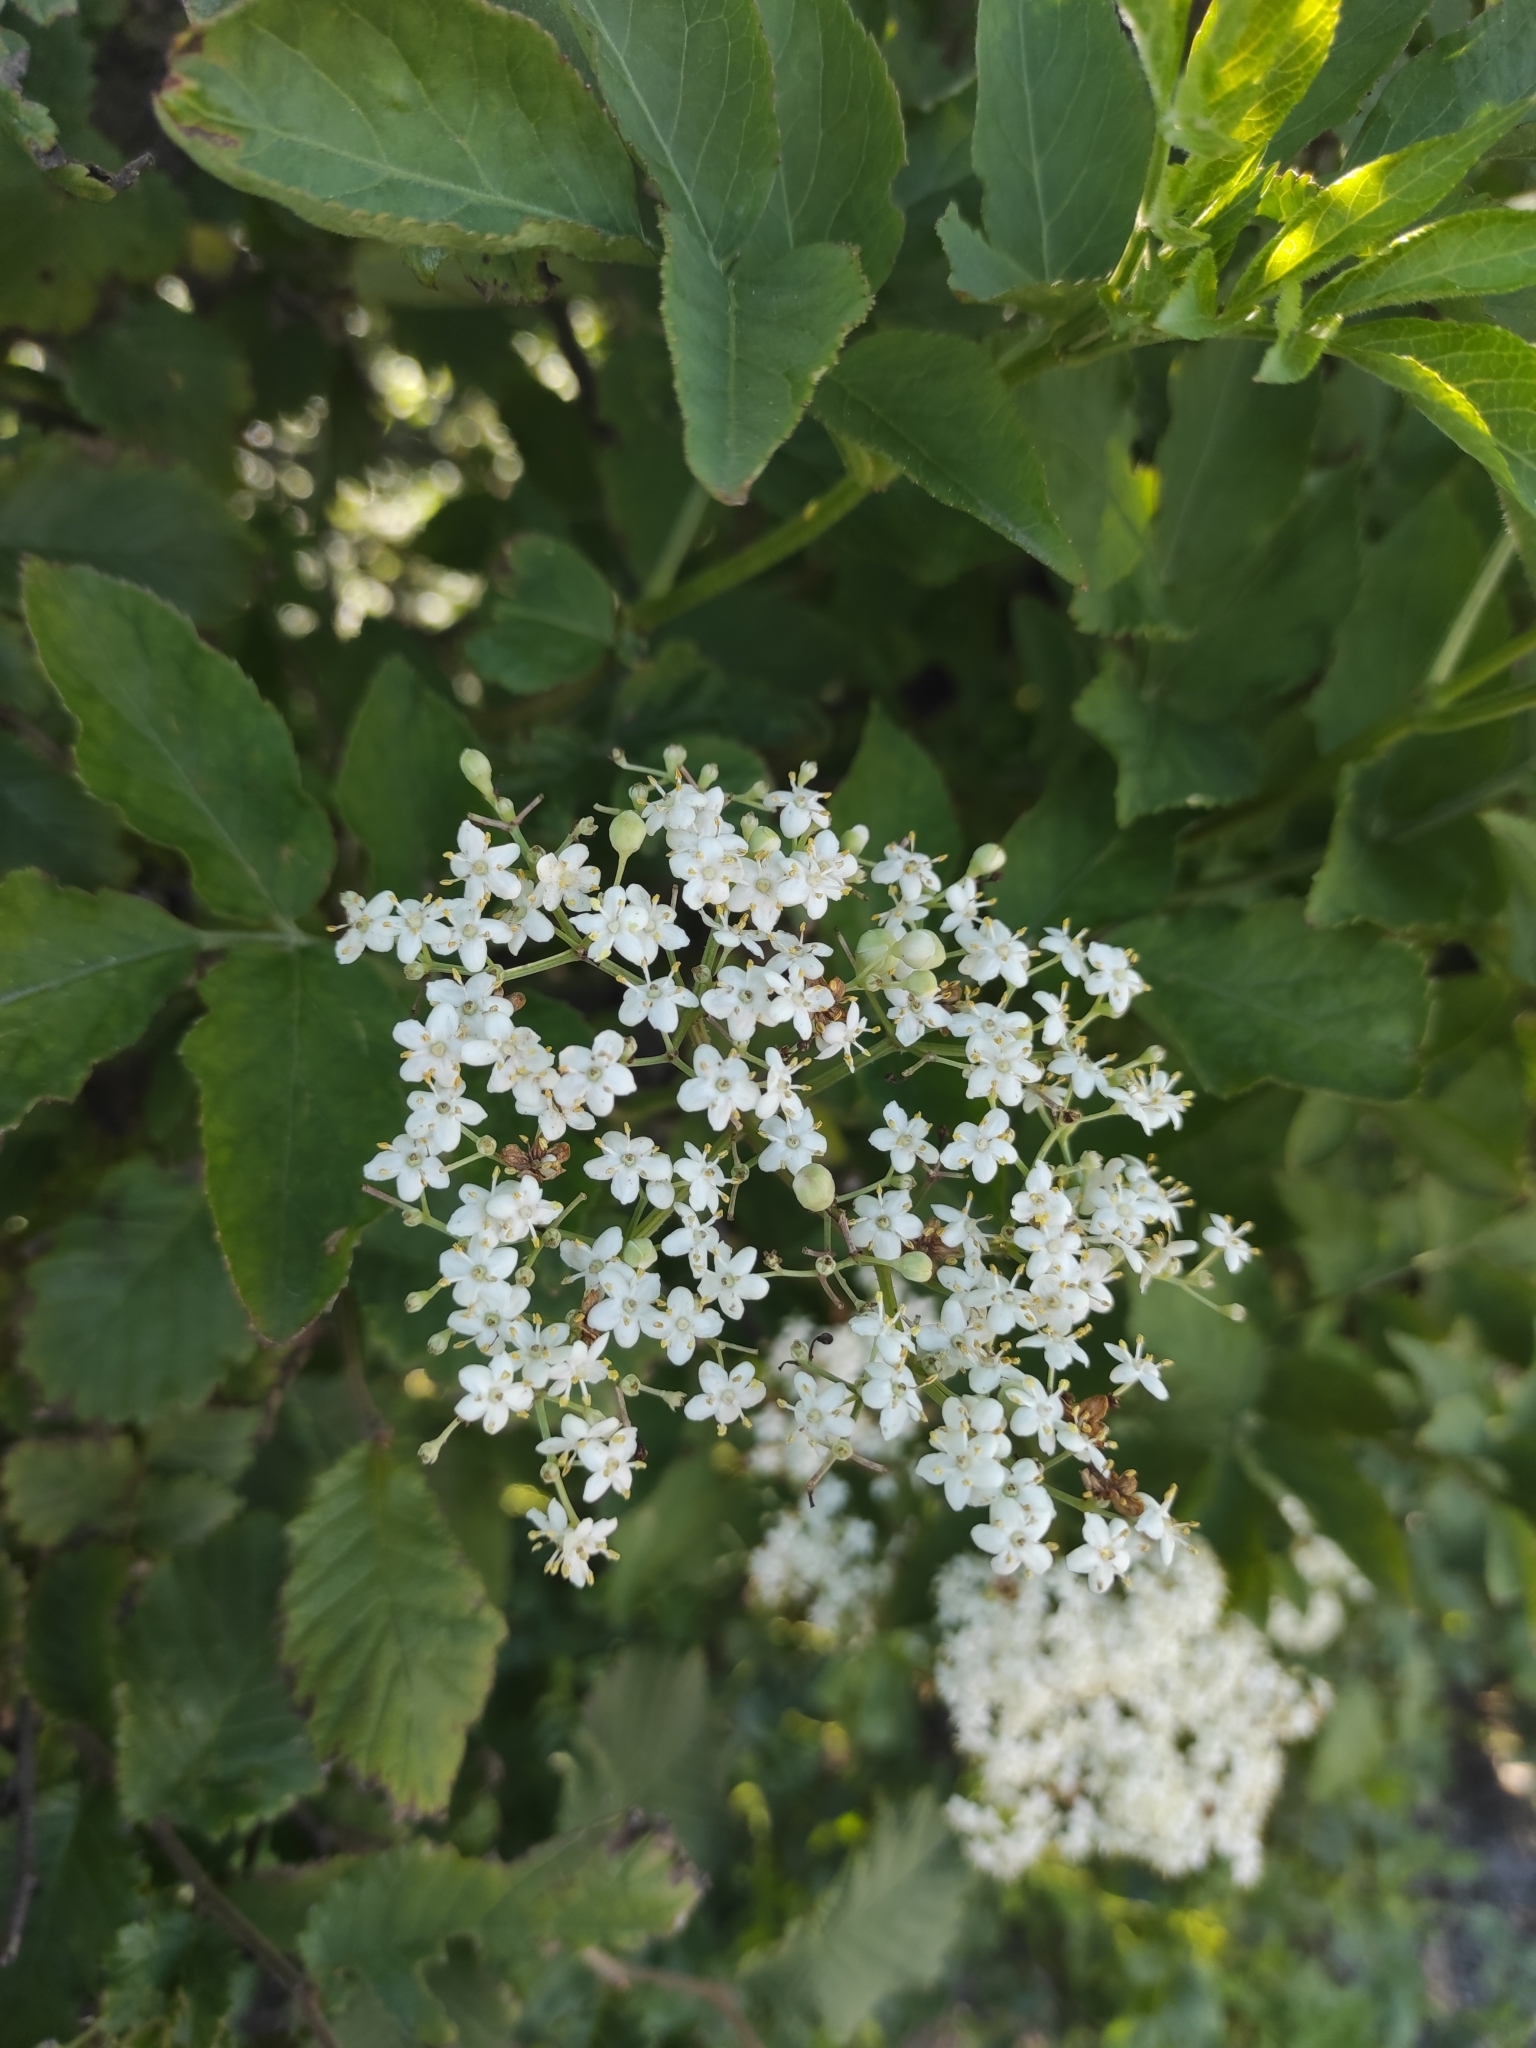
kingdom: Plantae
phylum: Tracheophyta
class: Magnoliopsida
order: Dipsacales
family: Viburnaceae
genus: Sambucus
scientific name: Sambucus nigra
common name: Elder
